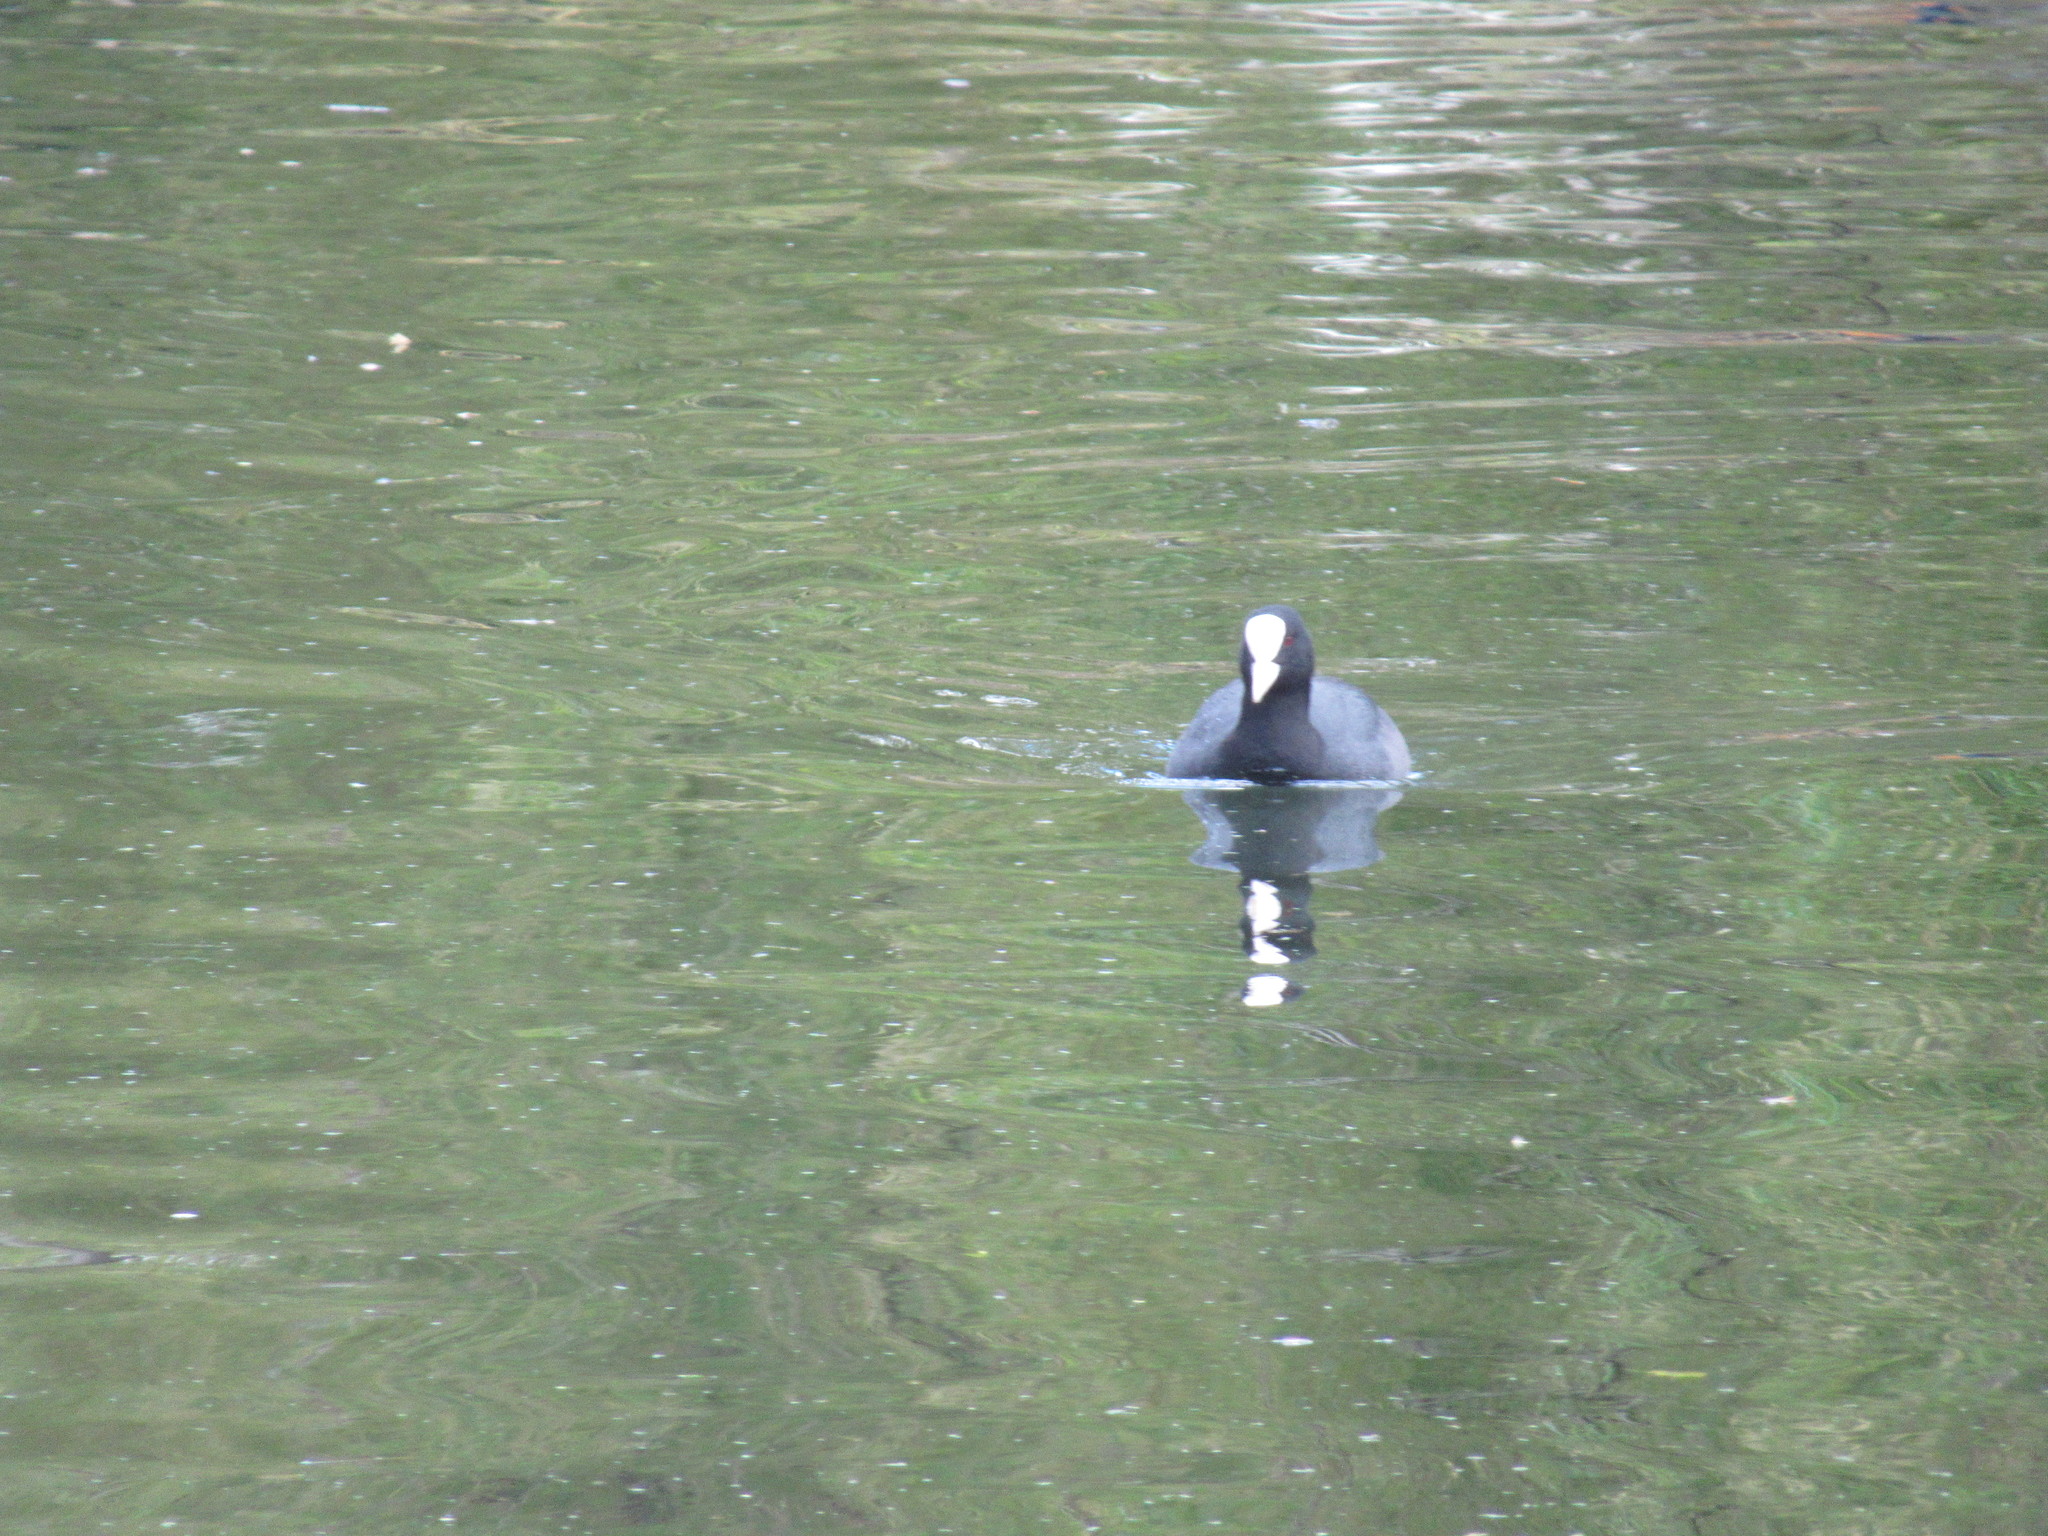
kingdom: Animalia
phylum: Chordata
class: Aves
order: Gruiformes
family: Rallidae
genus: Fulica
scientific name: Fulica atra
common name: Eurasian coot
